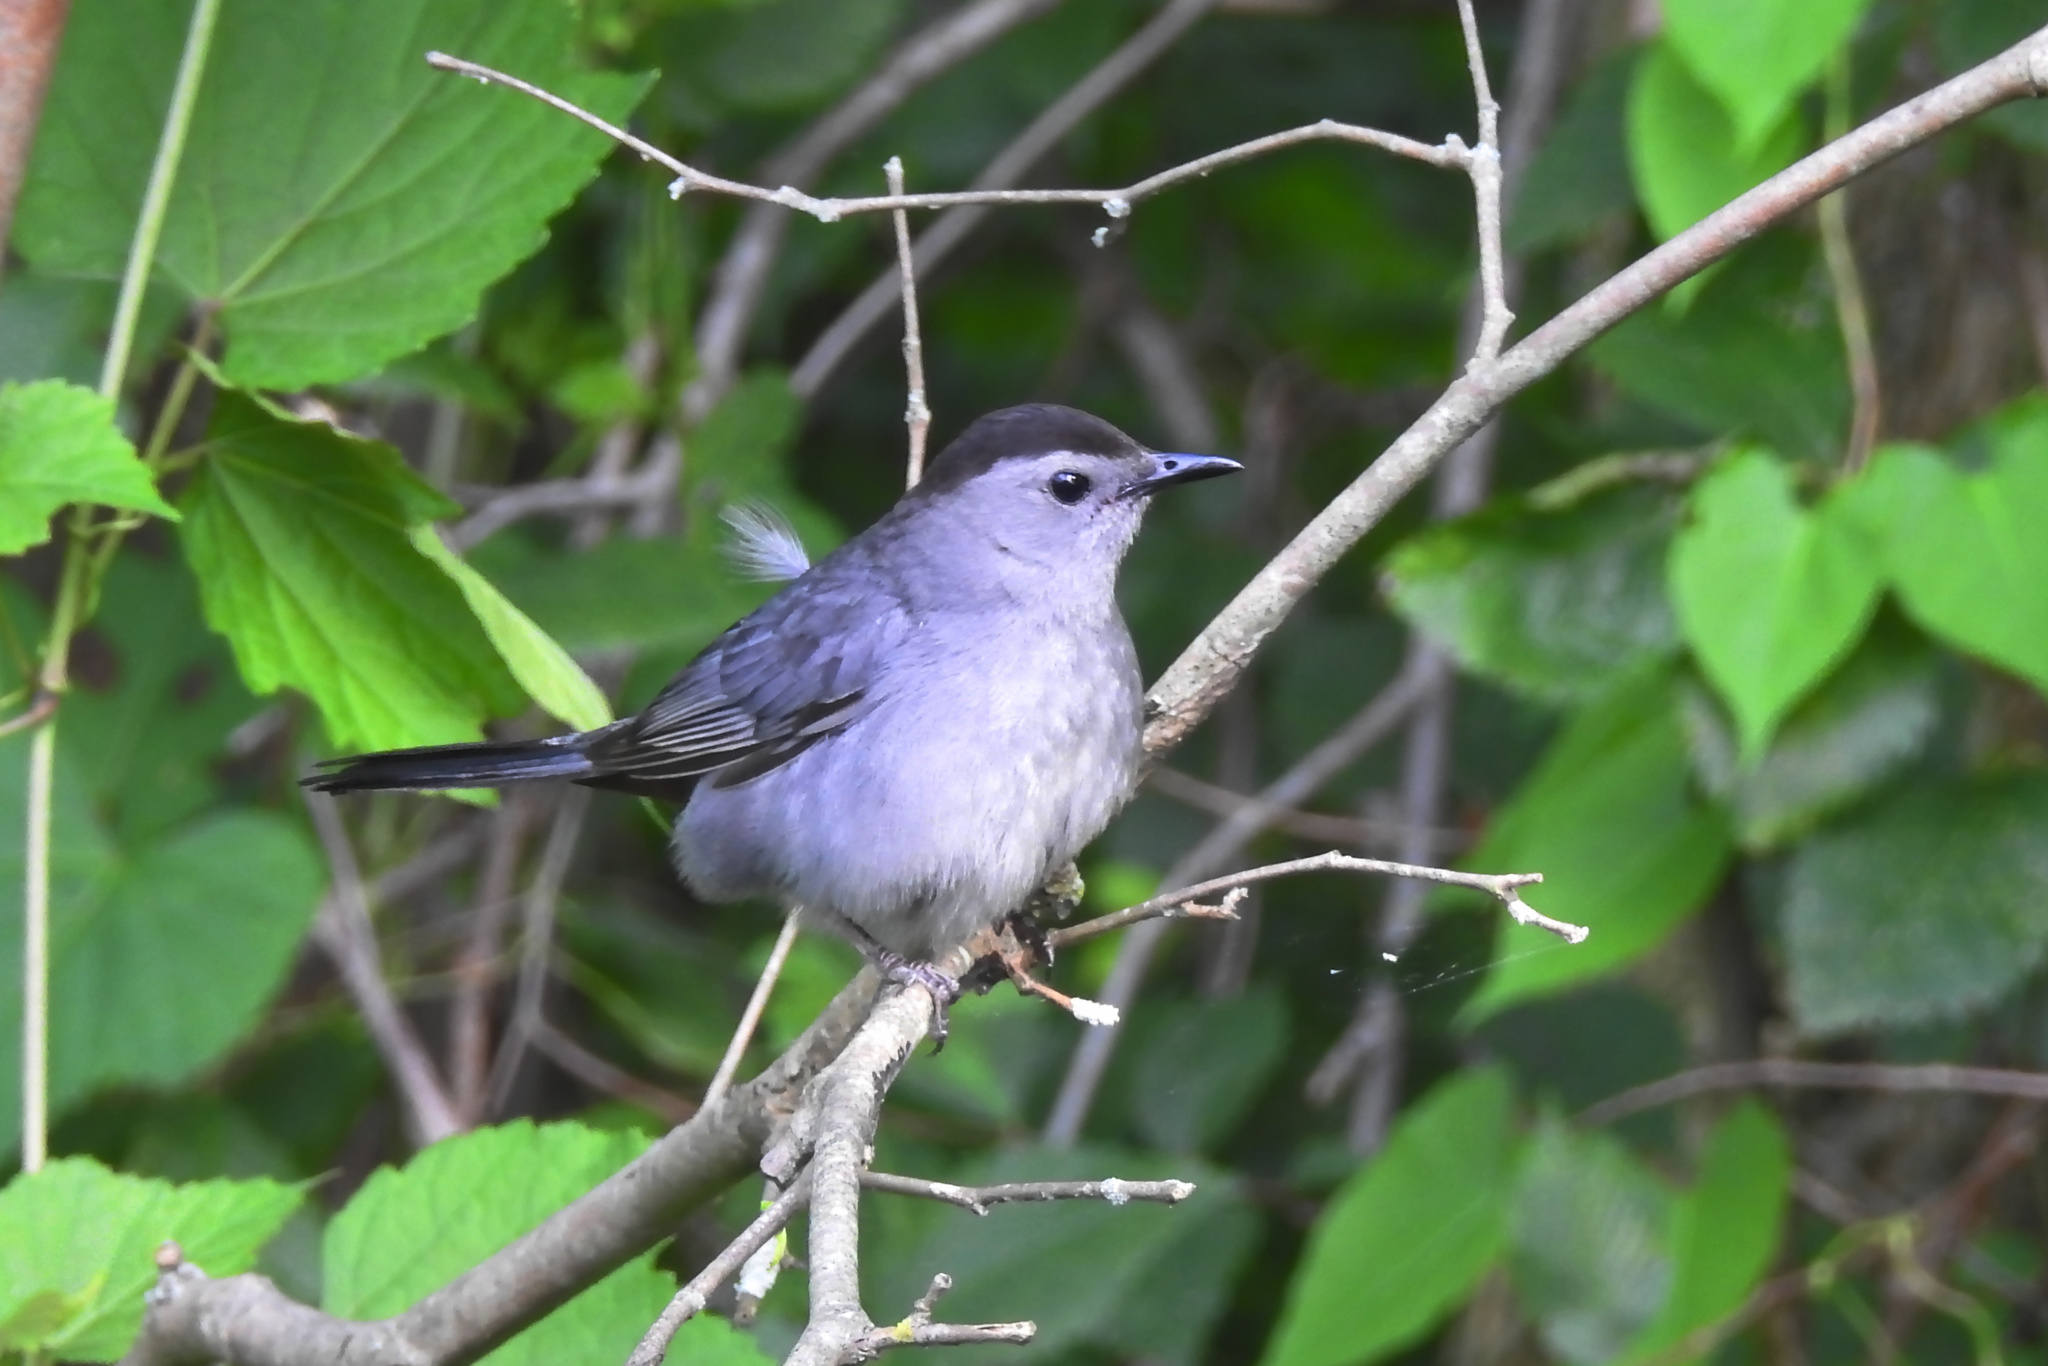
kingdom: Animalia
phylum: Chordata
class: Aves
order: Passeriformes
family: Mimidae
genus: Dumetella
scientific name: Dumetella carolinensis
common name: Gray catbird
